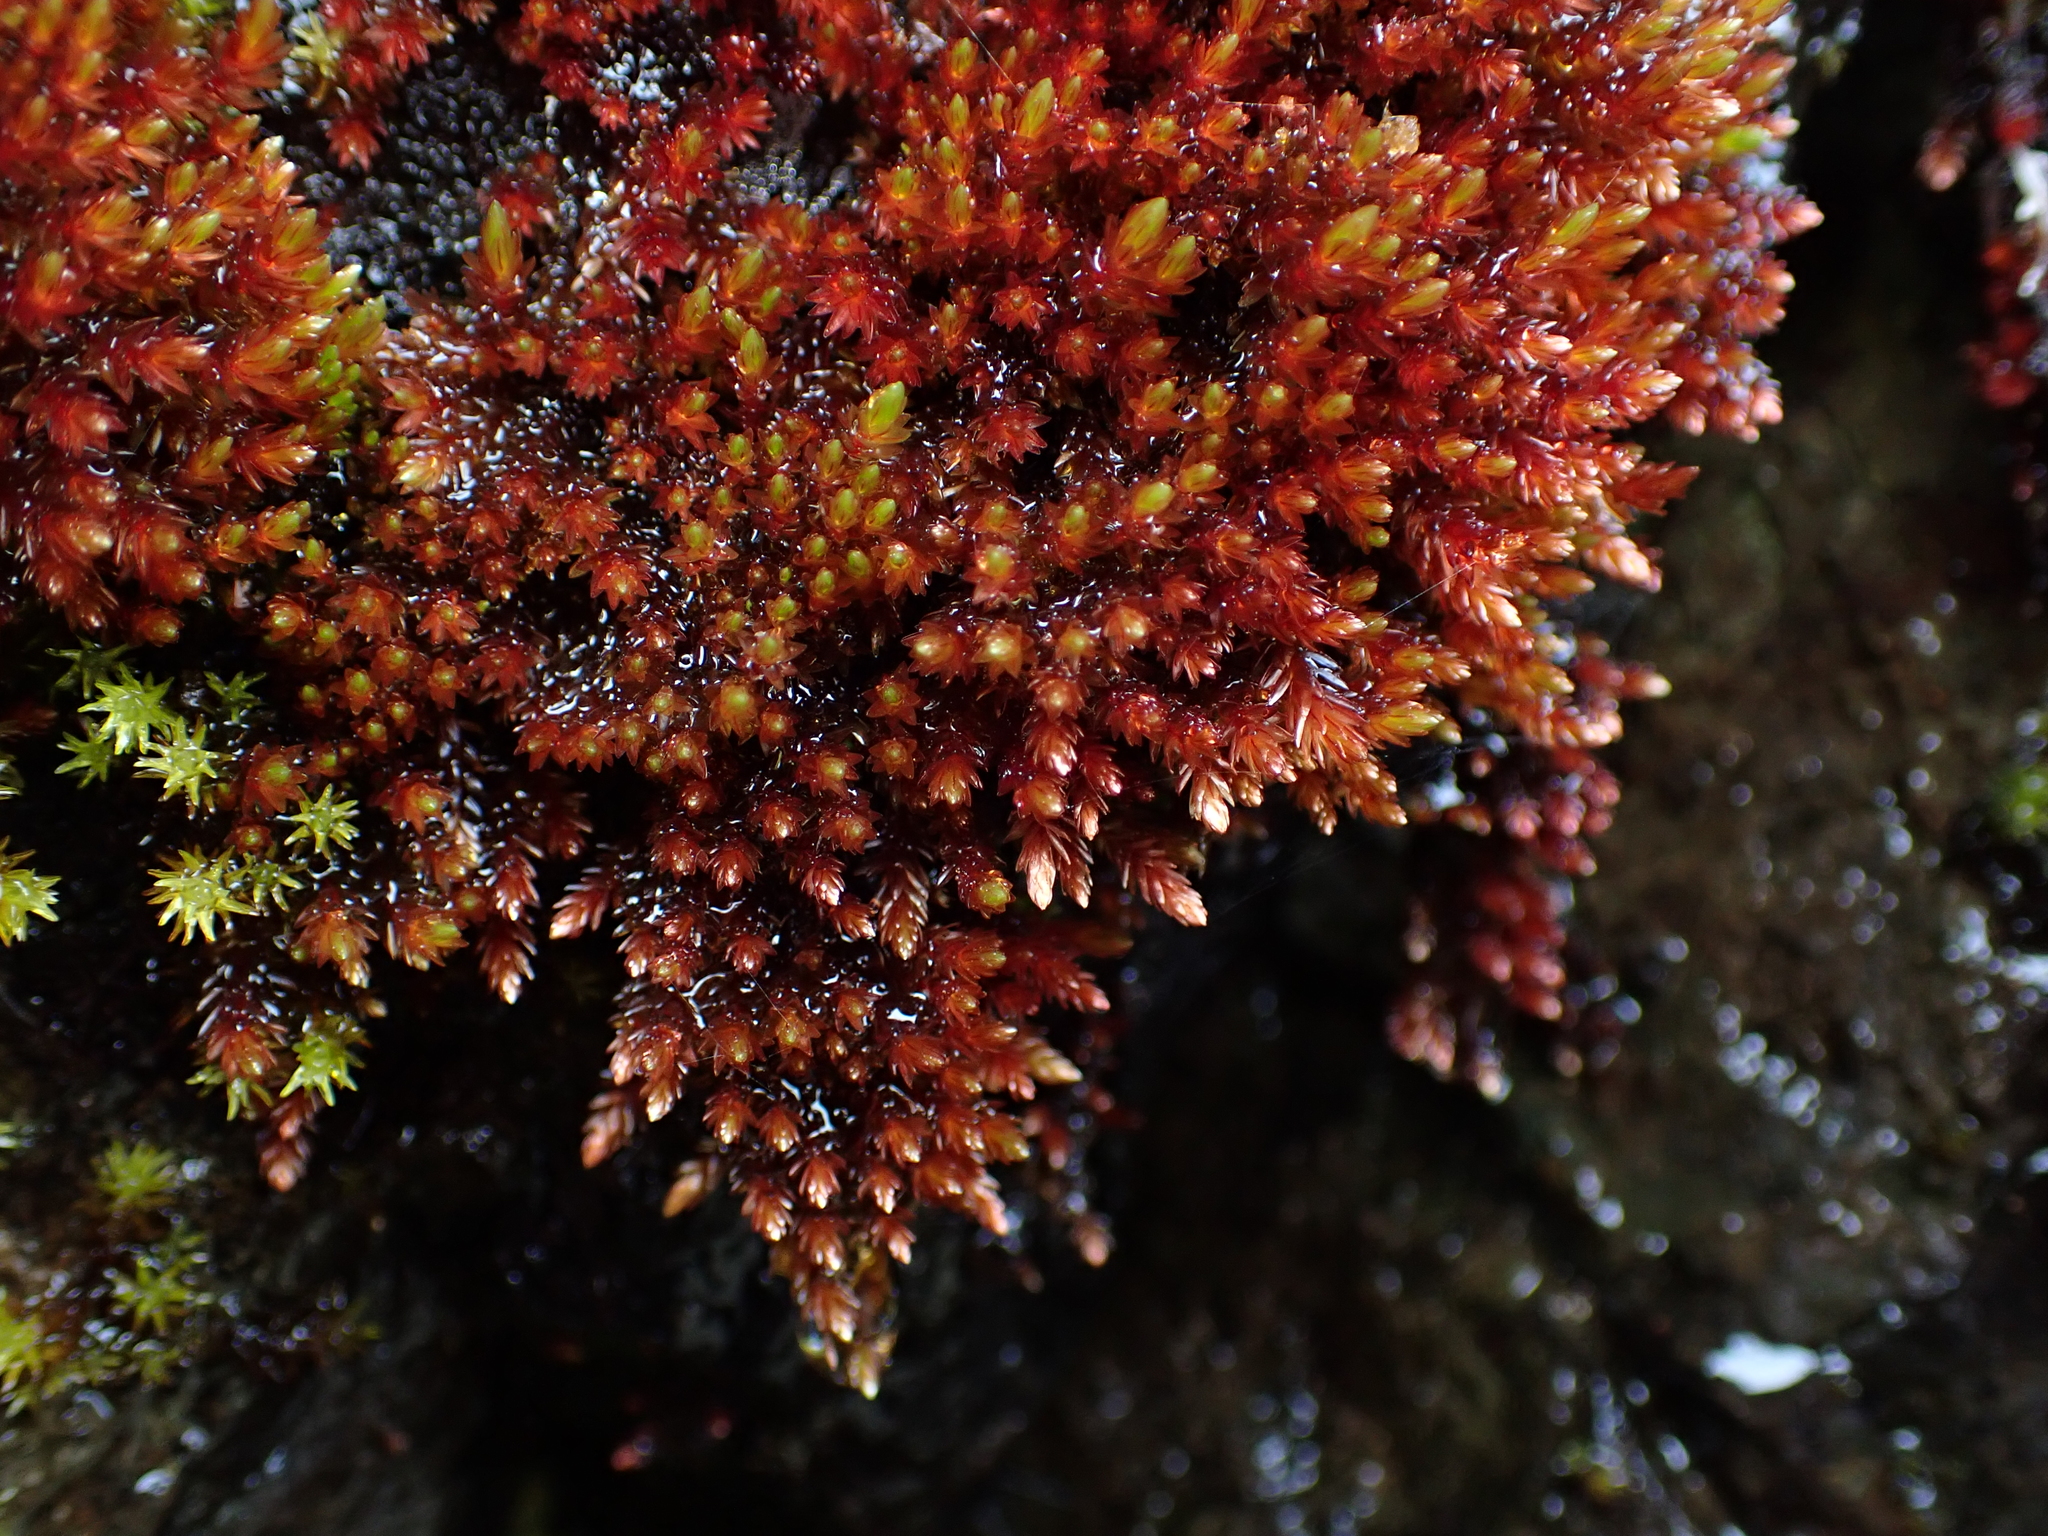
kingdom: Plantae
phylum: Bryophyta
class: Bryopsida
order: Bryales
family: Bryaceae
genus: Imbribryum
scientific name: Imbribryum miniatum
